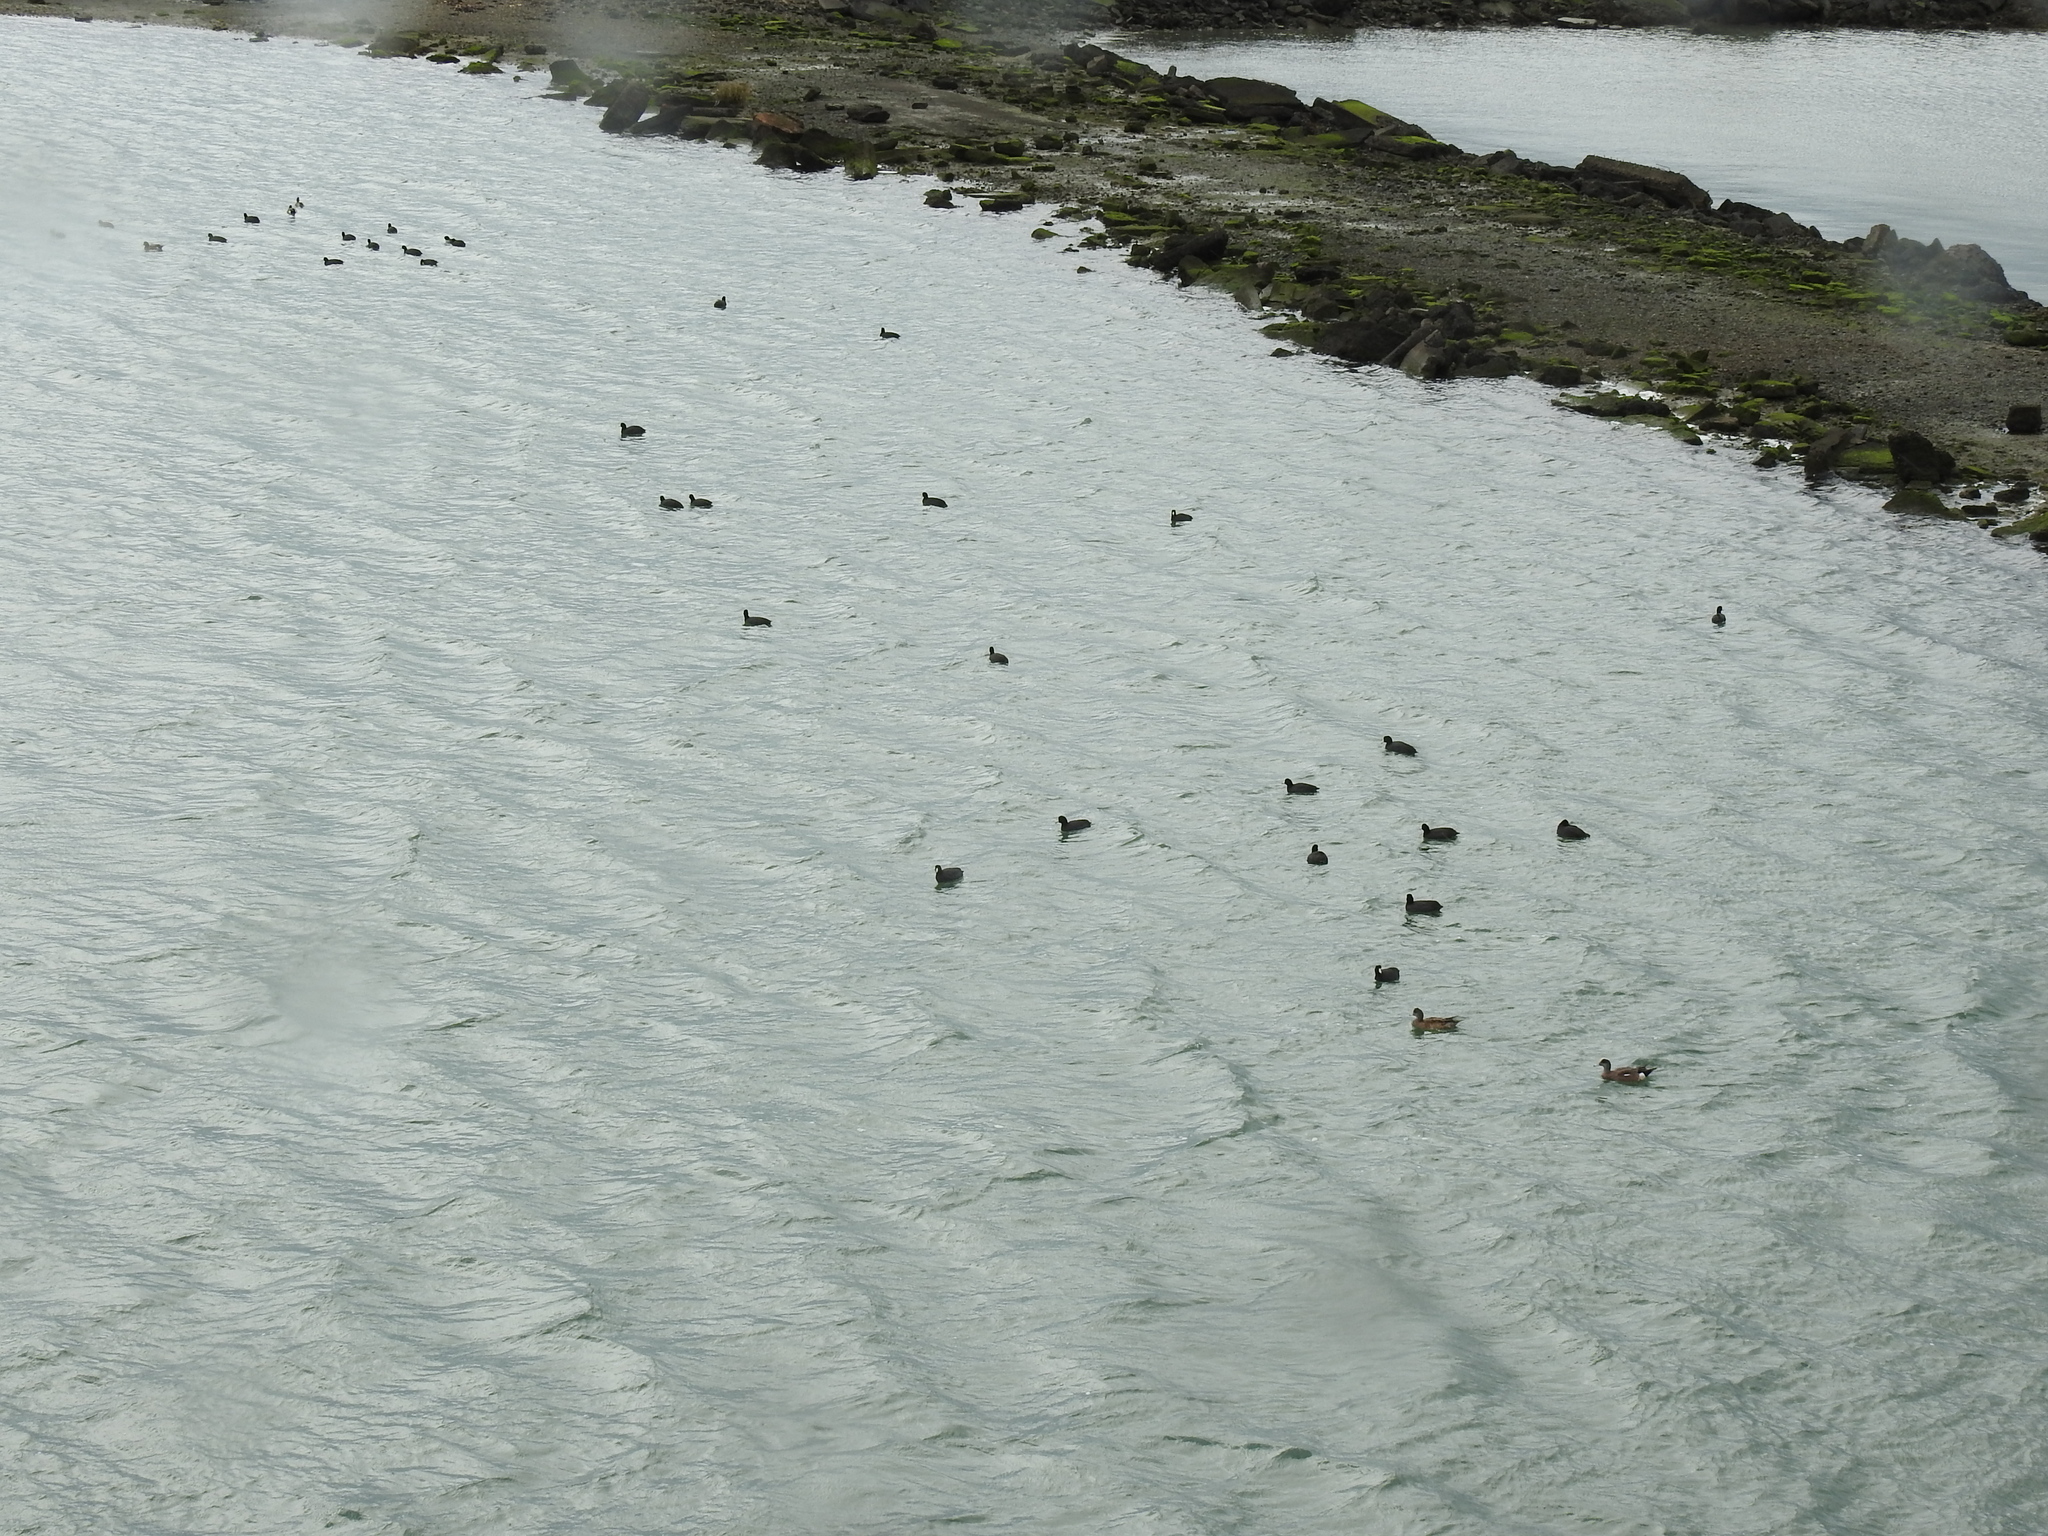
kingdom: Animalia
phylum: Chordata
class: Aves
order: Gruiformes
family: Rallidae
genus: Fulica
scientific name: Fulica americana
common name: American coot
